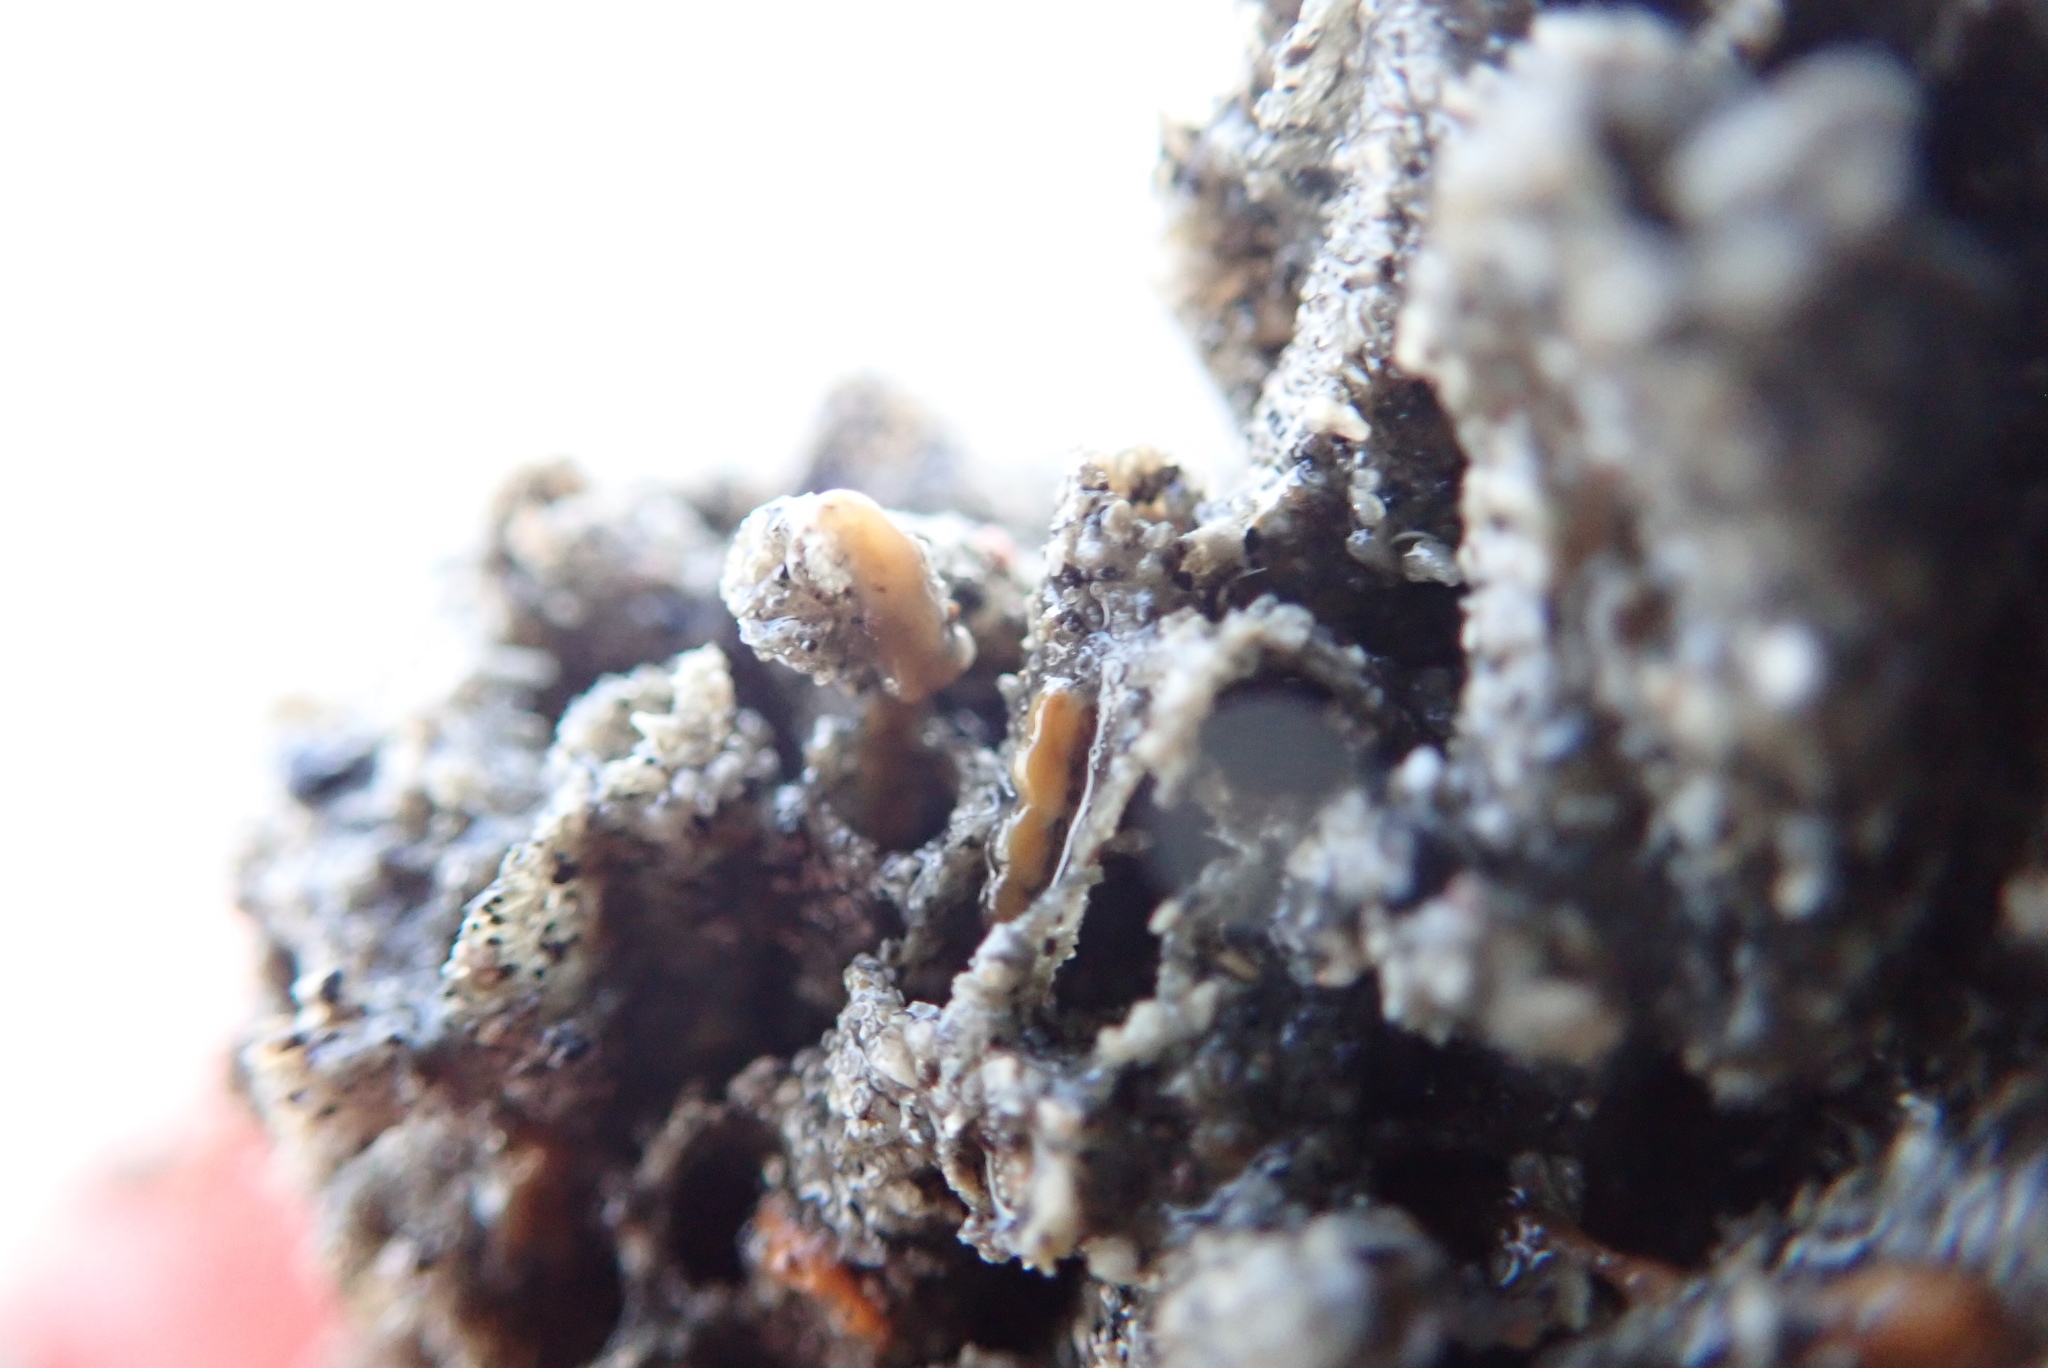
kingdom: Animalia
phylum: Annelida
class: Polychaeta
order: Sabellida
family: Sabellariidae
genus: Neosabellaria
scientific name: Neosabellaria kaiparaensis
